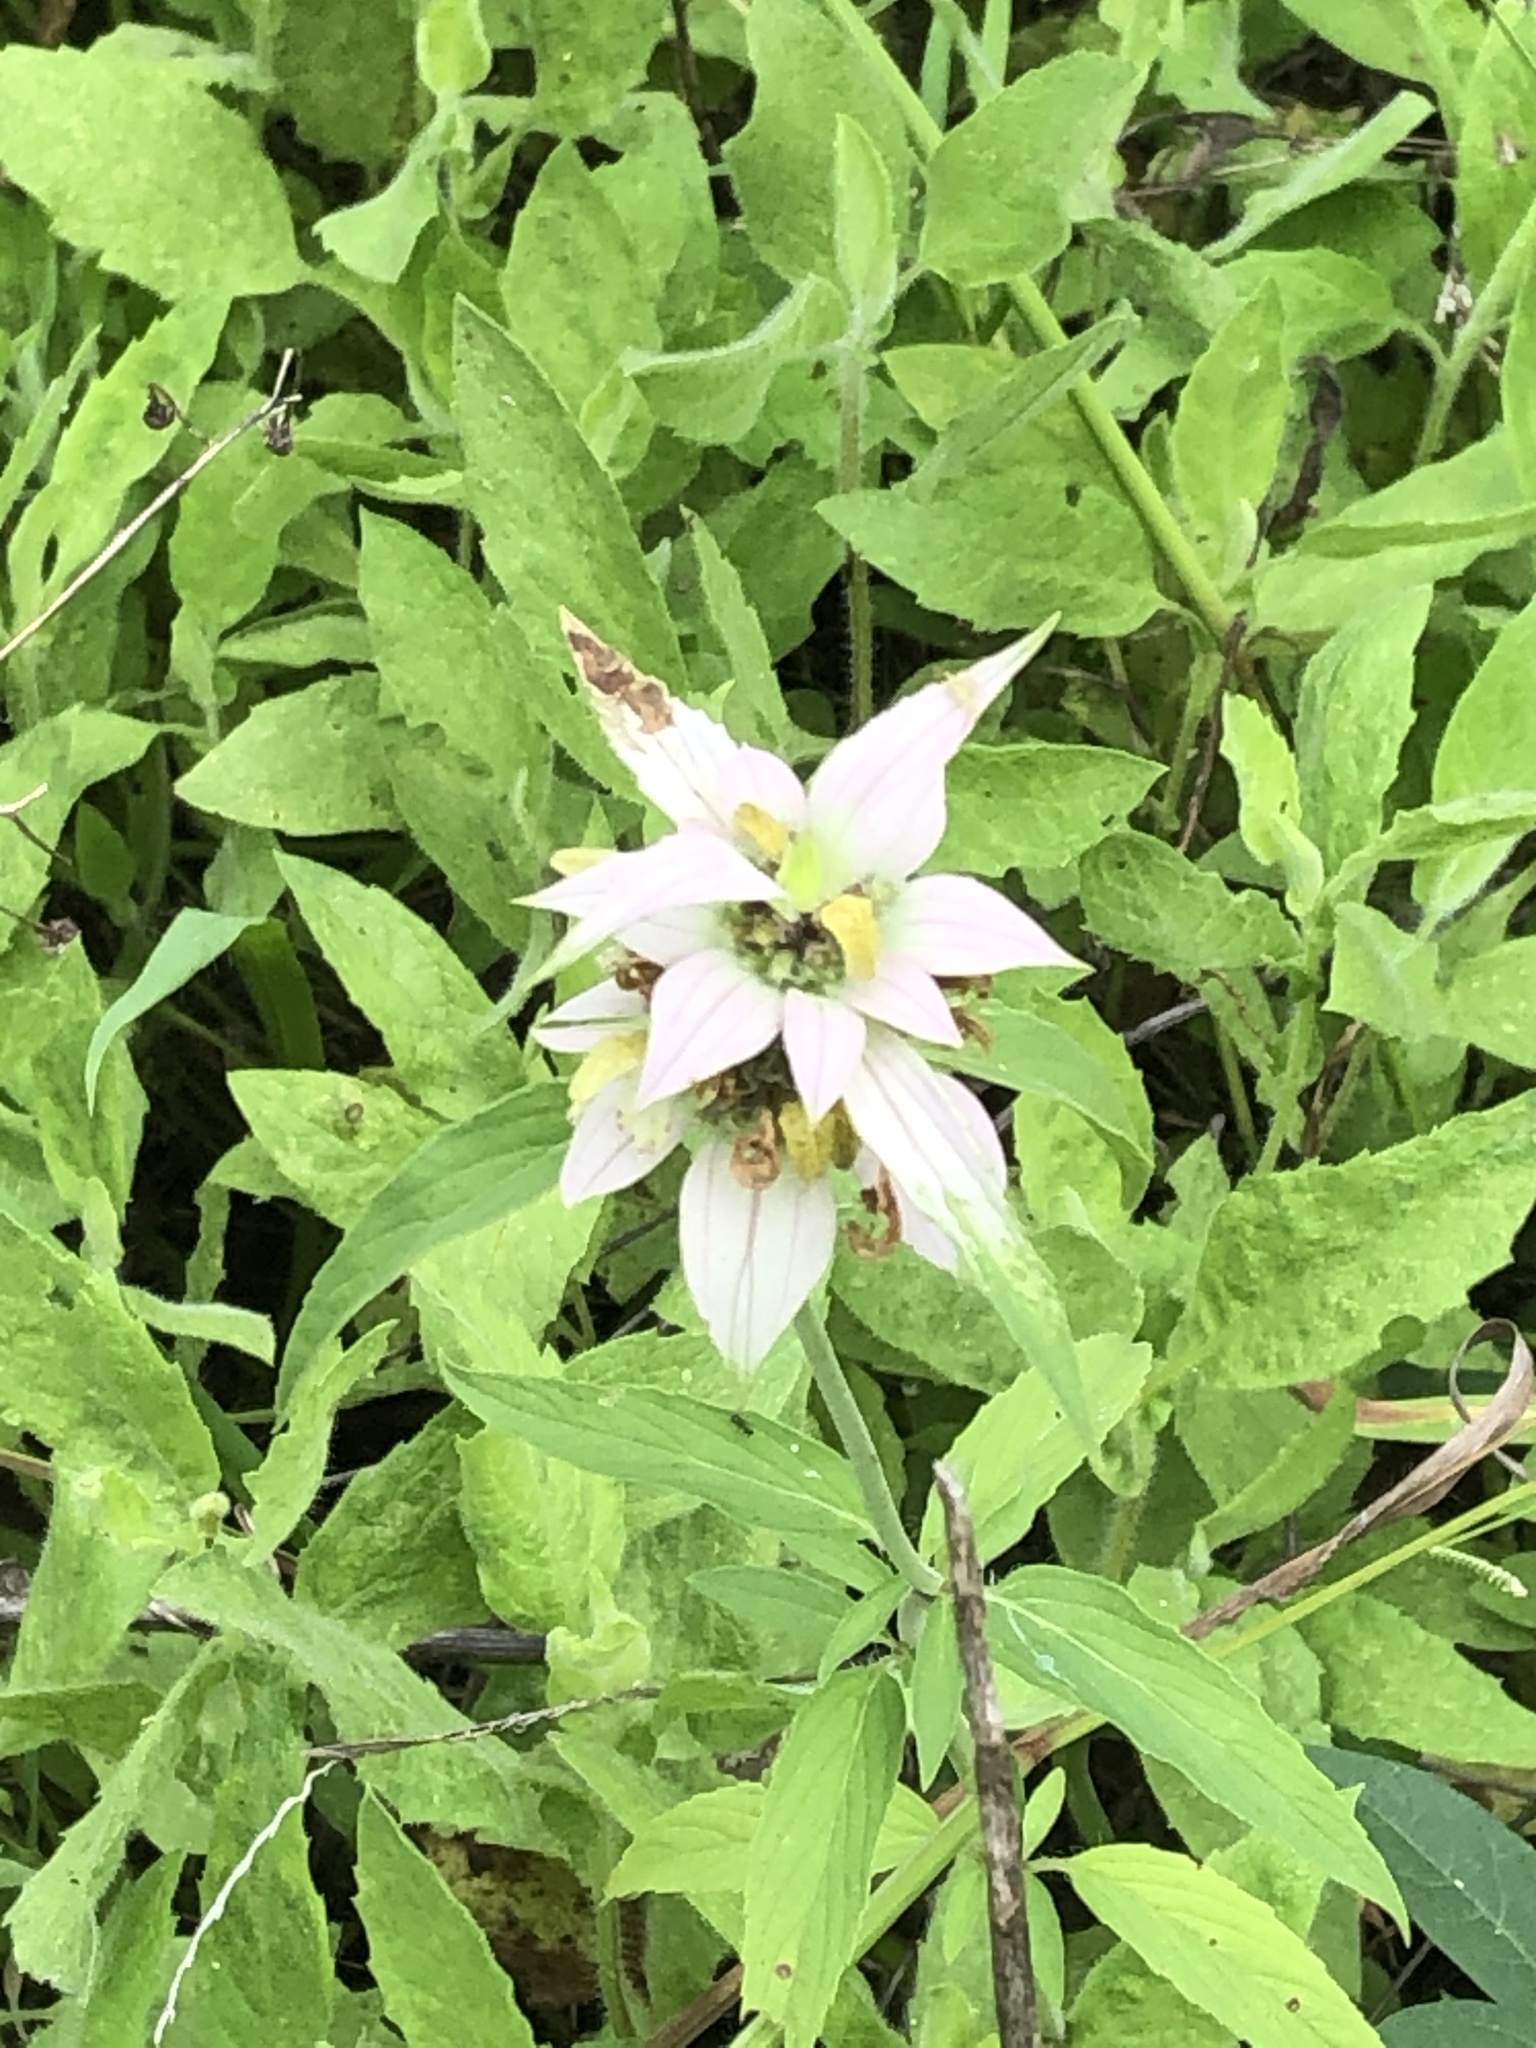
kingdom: Plantae
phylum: Tracheophyta
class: Magnoliopsida
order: Lamiales
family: Lamiaceae
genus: Monarda
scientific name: Monarda punctata
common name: Dotted monarda
